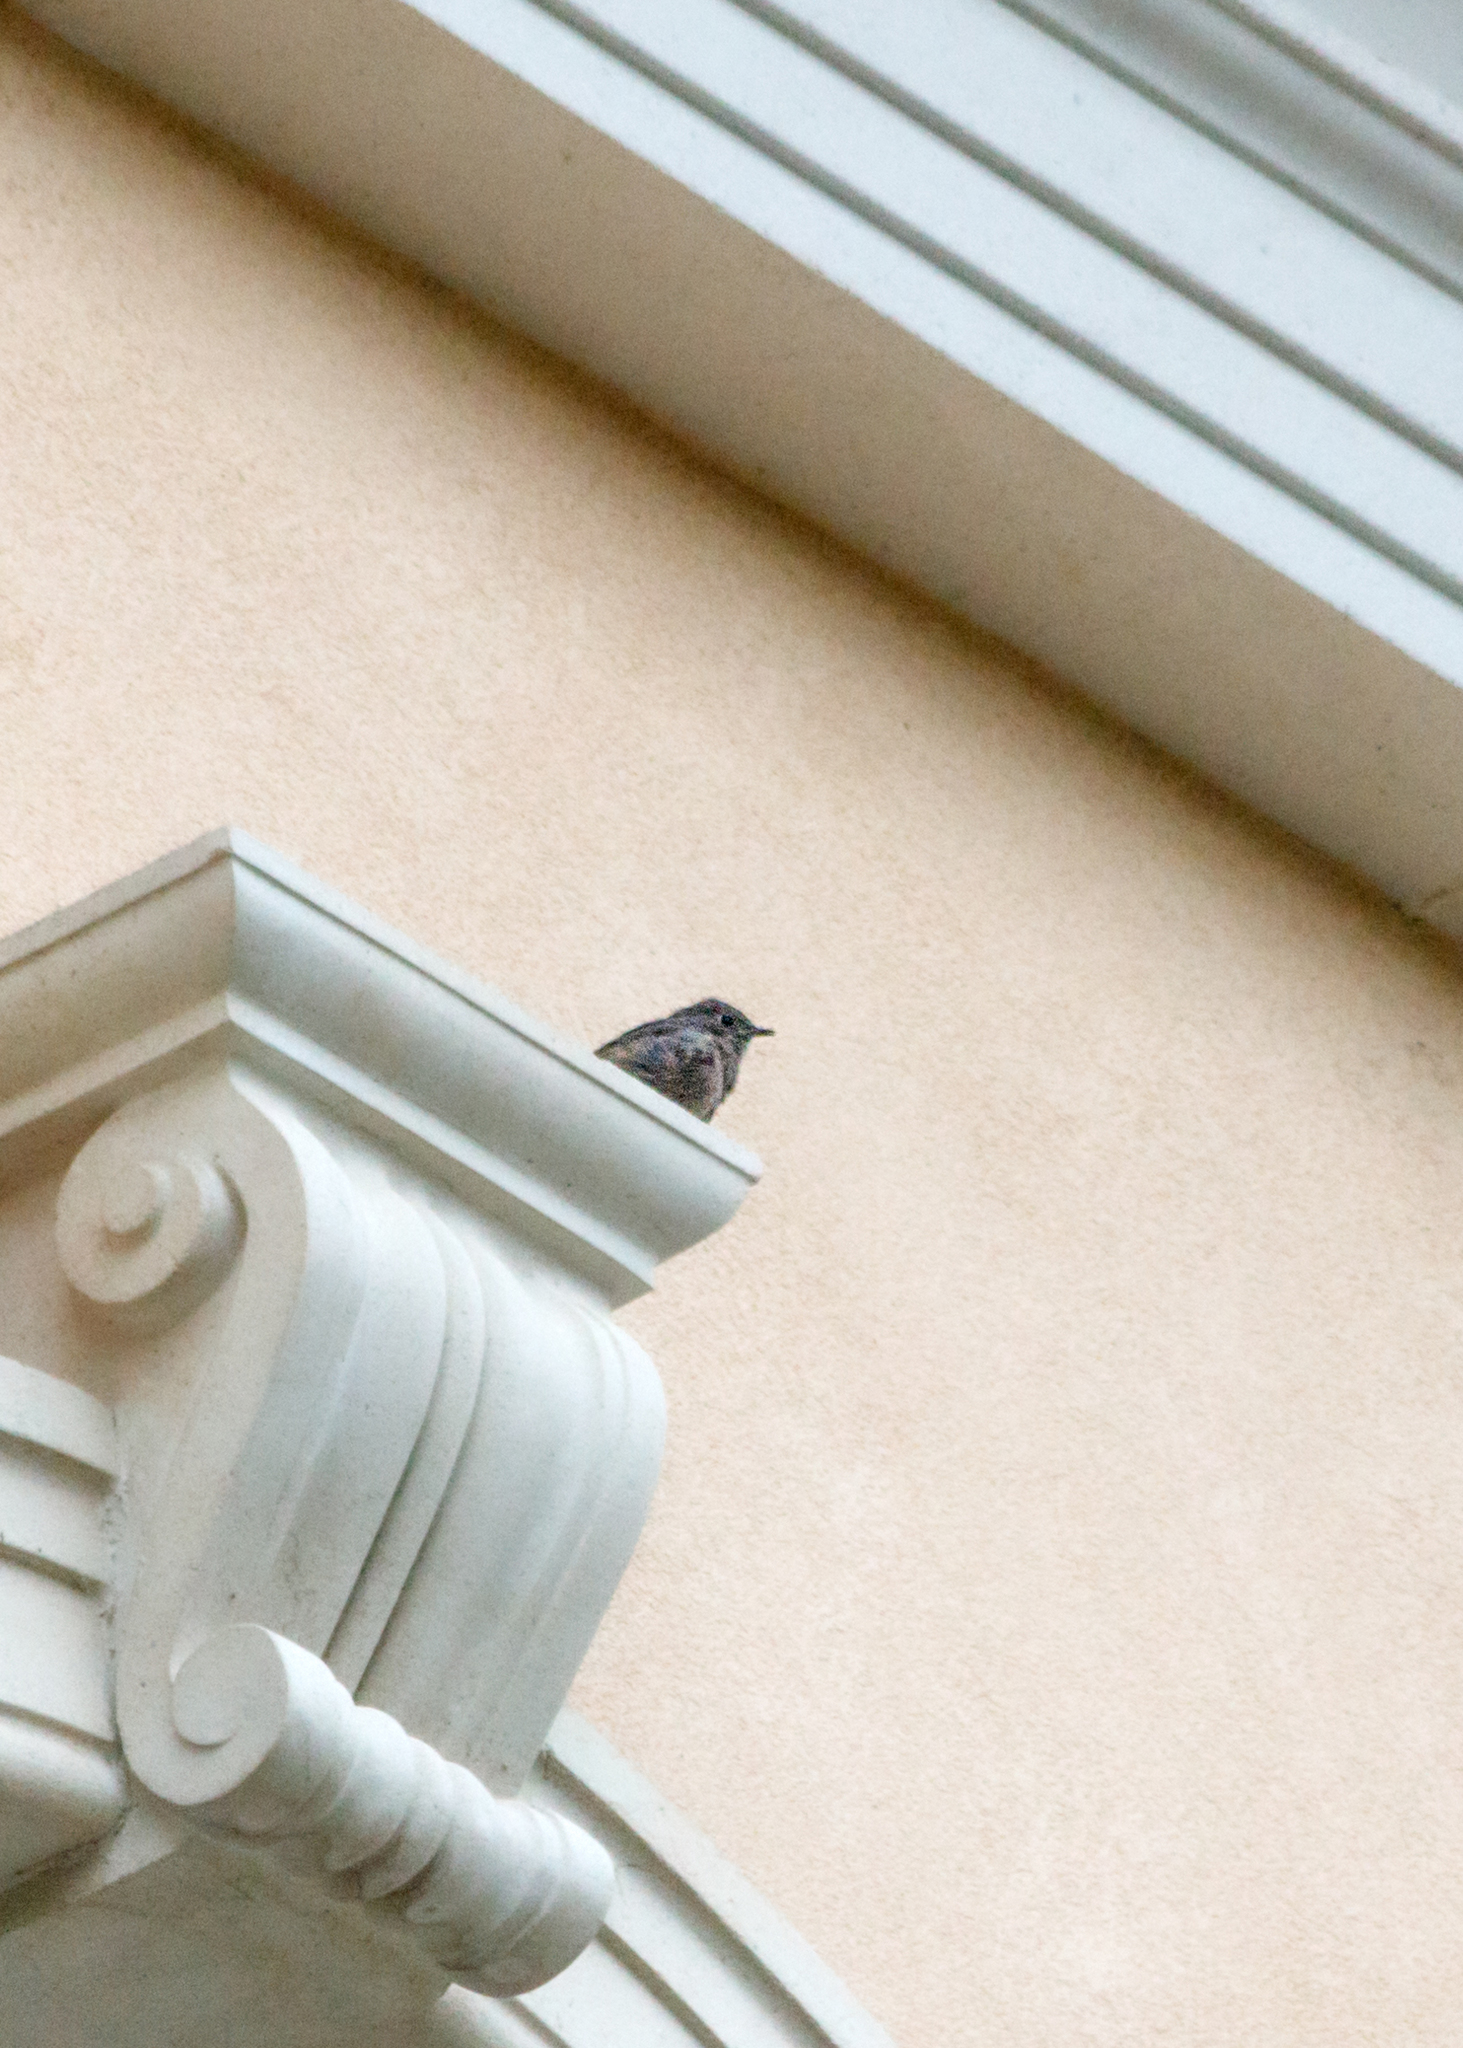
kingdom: Animalia
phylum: Chordata
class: Aves
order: Passeriformes
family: Muscicapidae
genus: Phoenicurus
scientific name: Phoenicurus ochruros
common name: Black redstart
